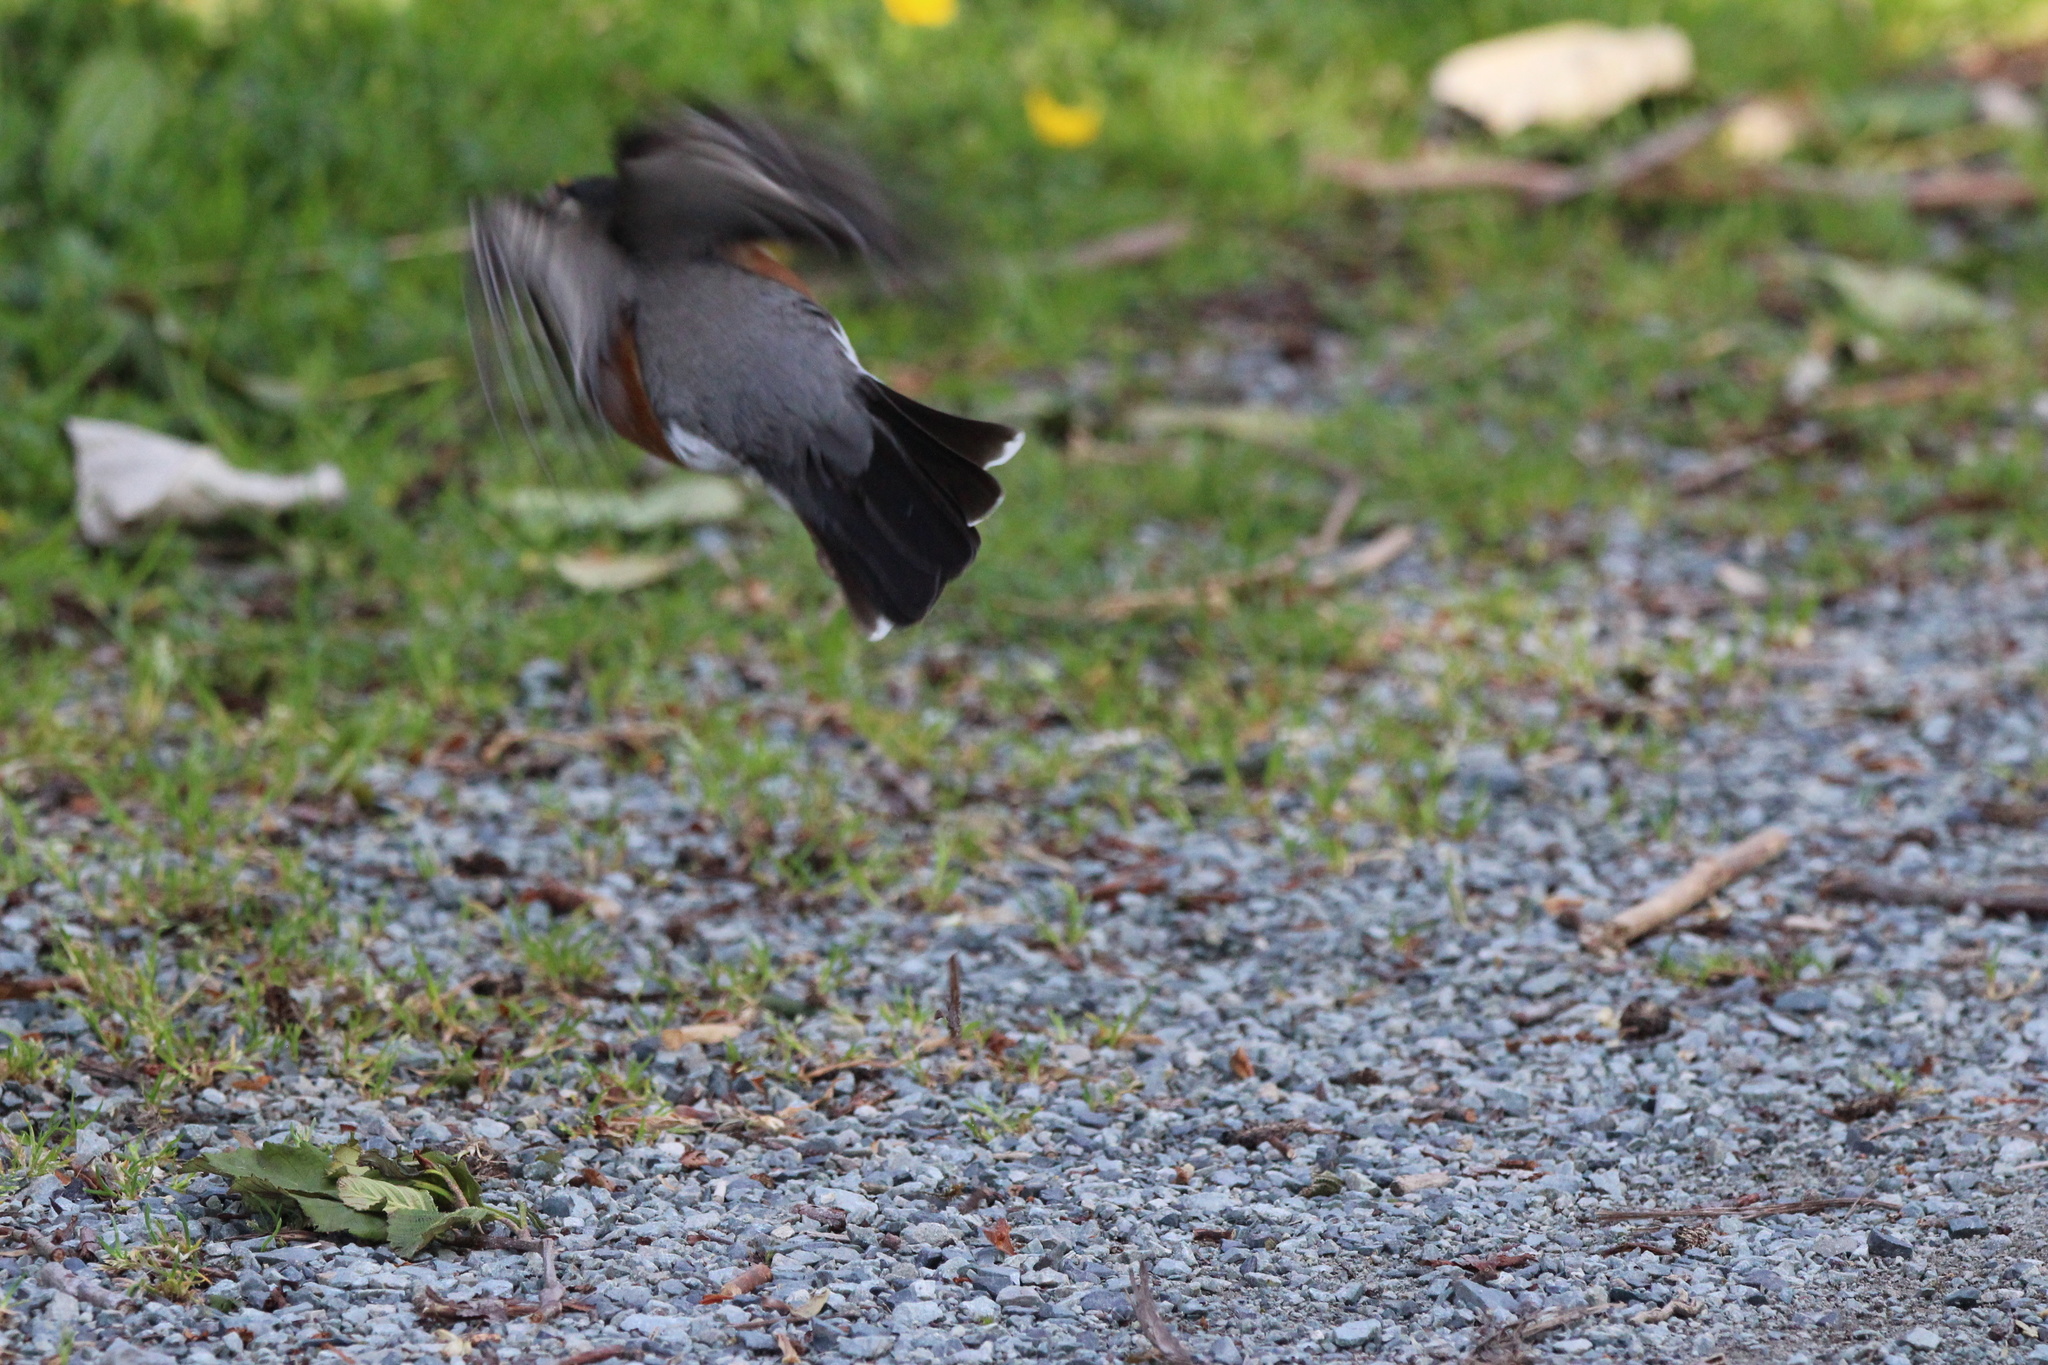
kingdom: Animalia
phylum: Chordata
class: Aves
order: Passeriformes
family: Turdidae
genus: Turdus
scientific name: Turdus migratorius
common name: American robin
